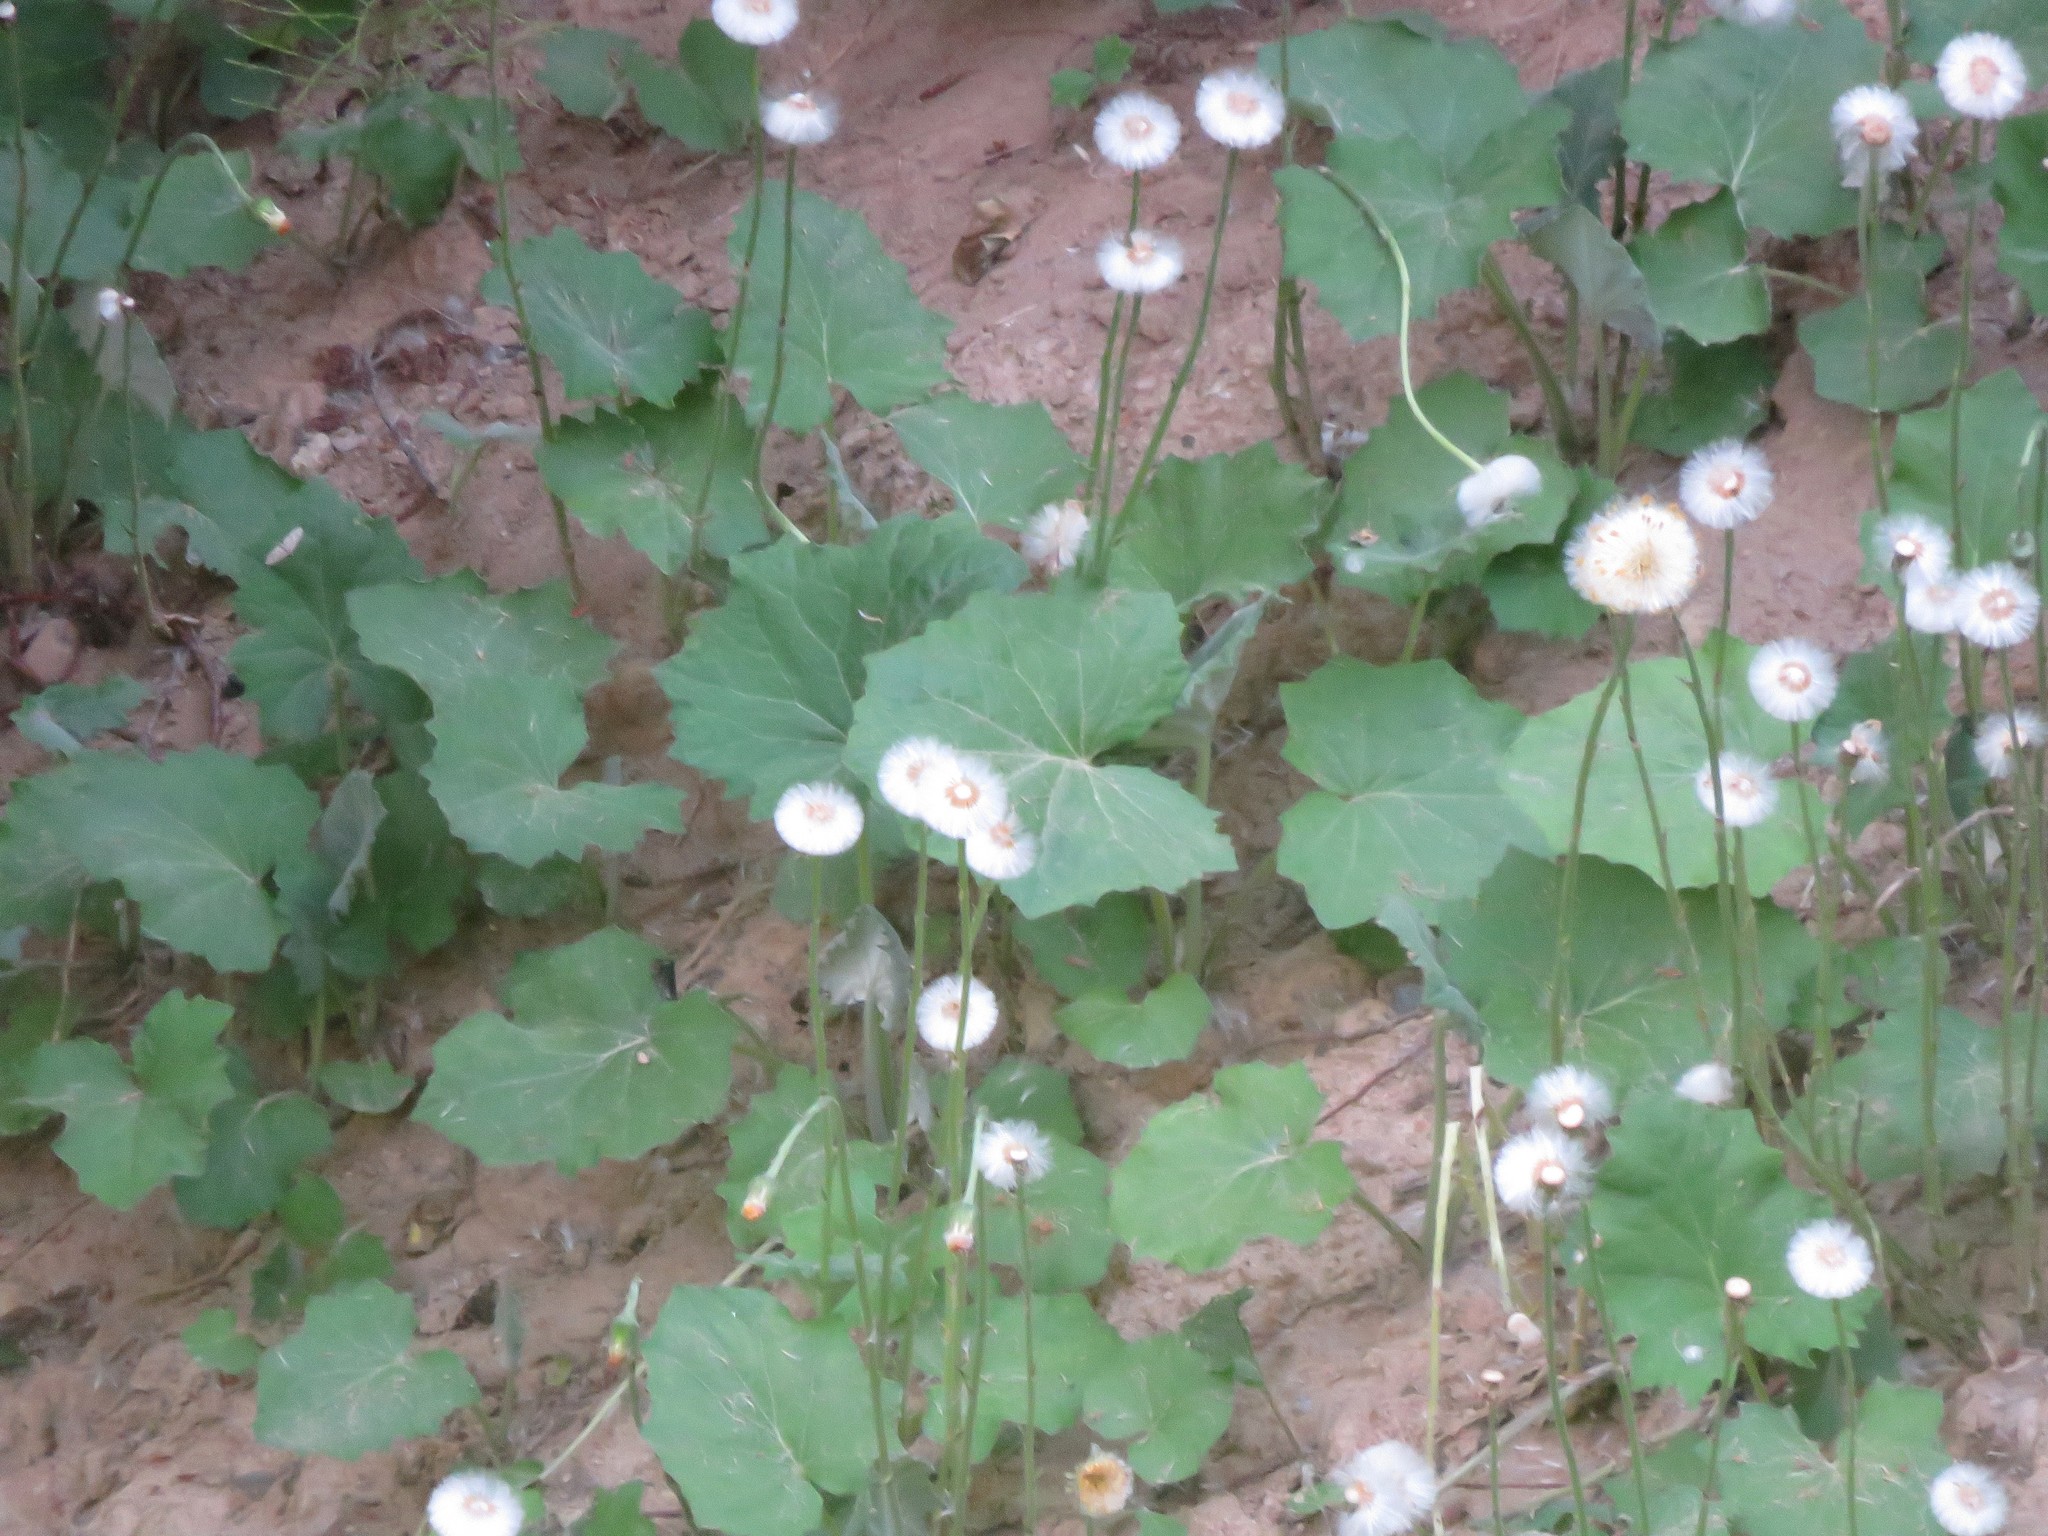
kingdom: Plantae
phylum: Tracheophyta
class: Magnoliopsida
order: Asterales
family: Asteraceae
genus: Tussilago
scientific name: Tussilago farfara
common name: Coltsfoot
